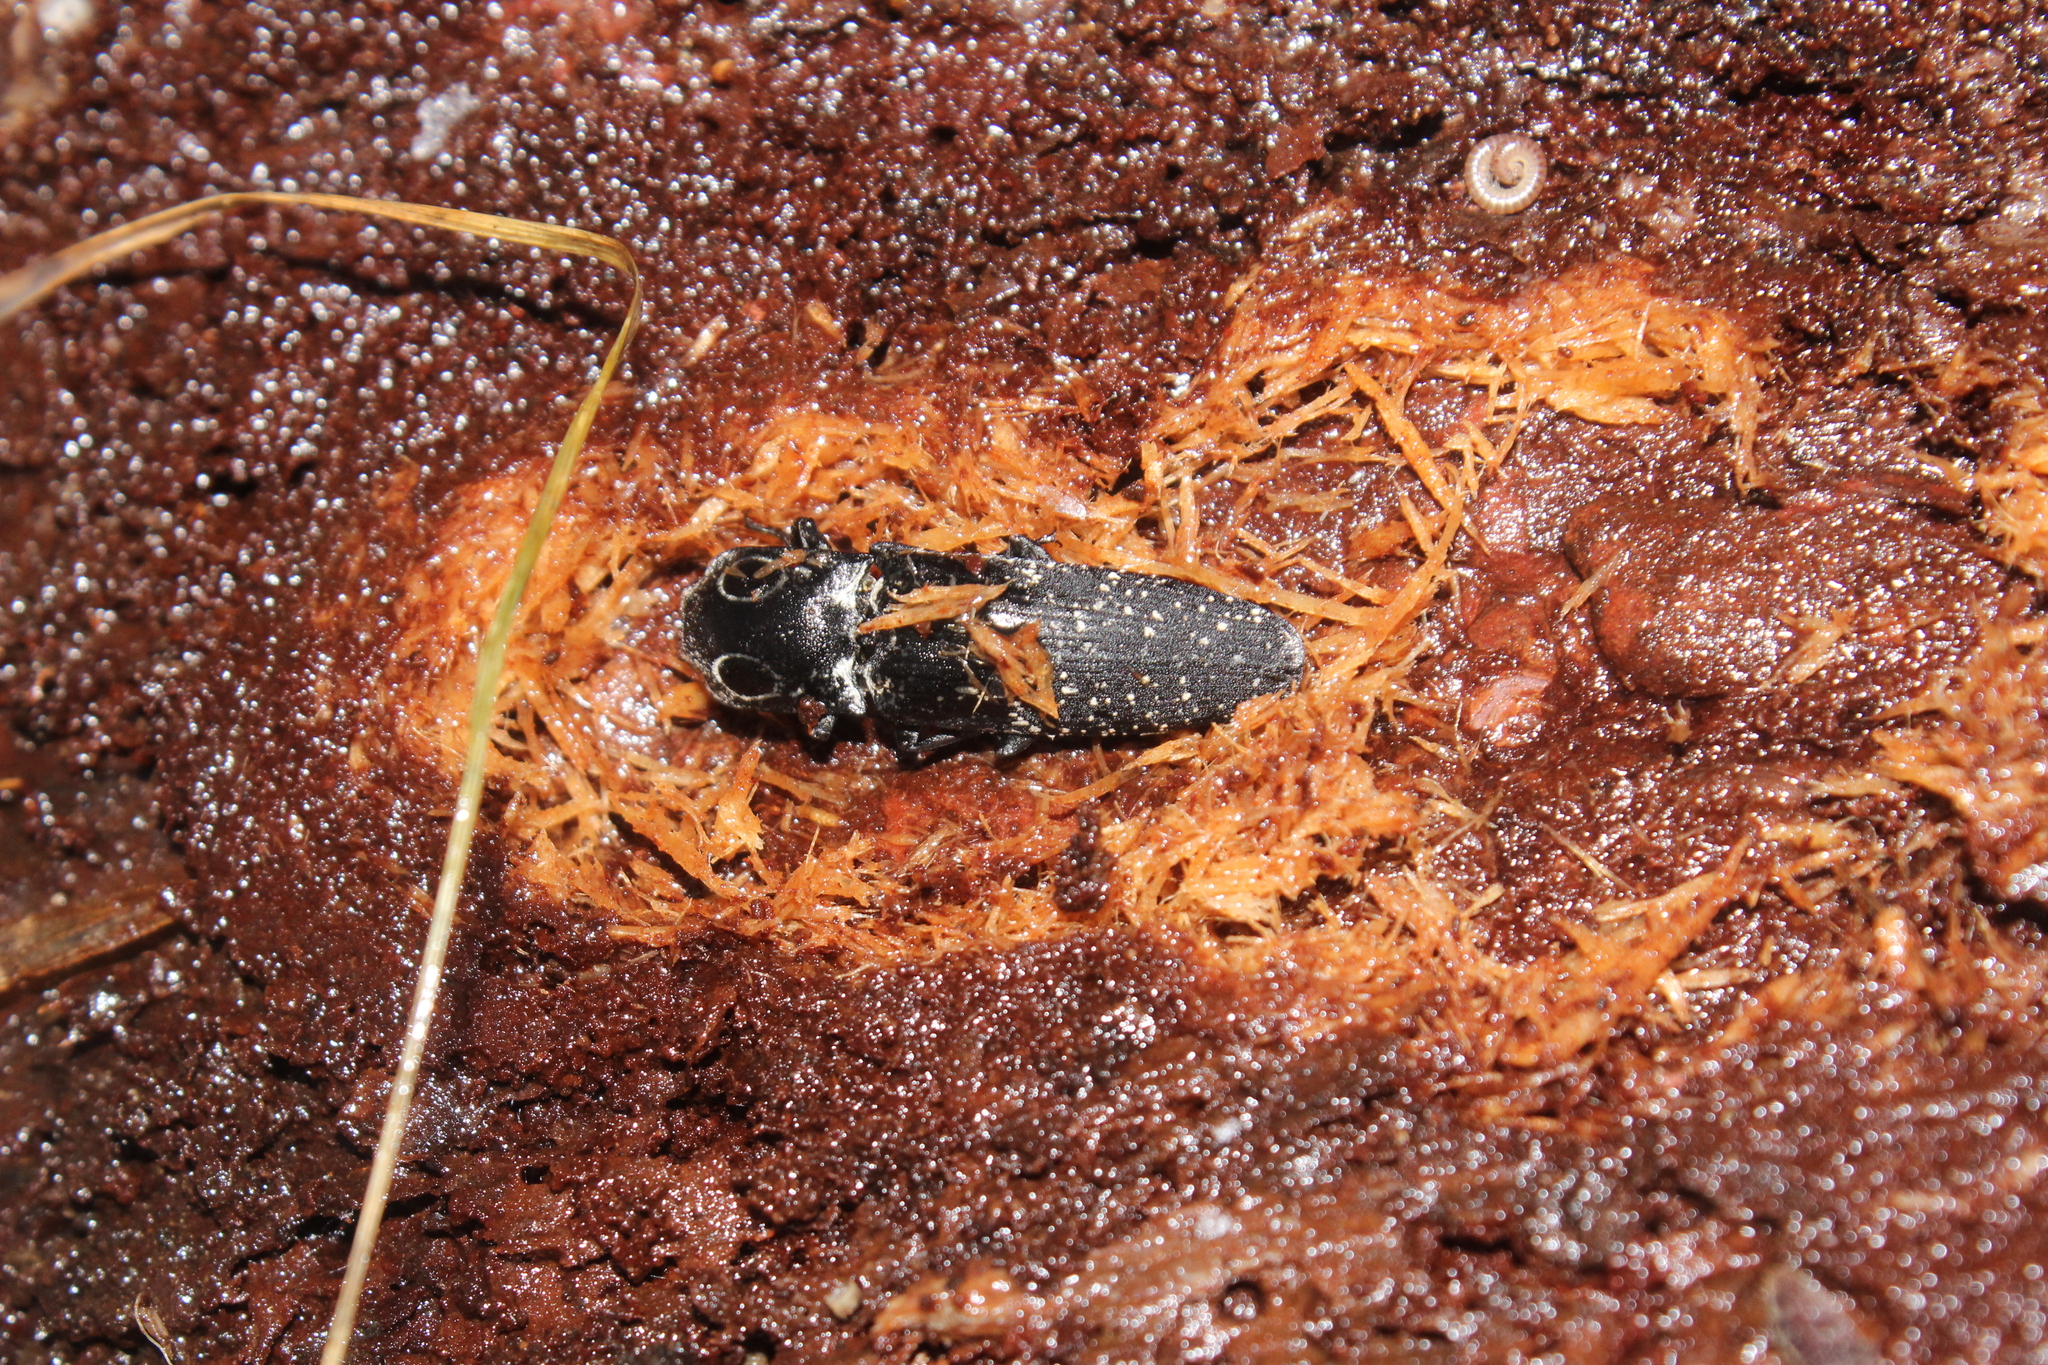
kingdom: Animalia
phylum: Arthropoda
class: Insecta
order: Coleoptera
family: Elateridae
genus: Alaus
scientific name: Alaus oculatus
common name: Eastern eyed click beetle
